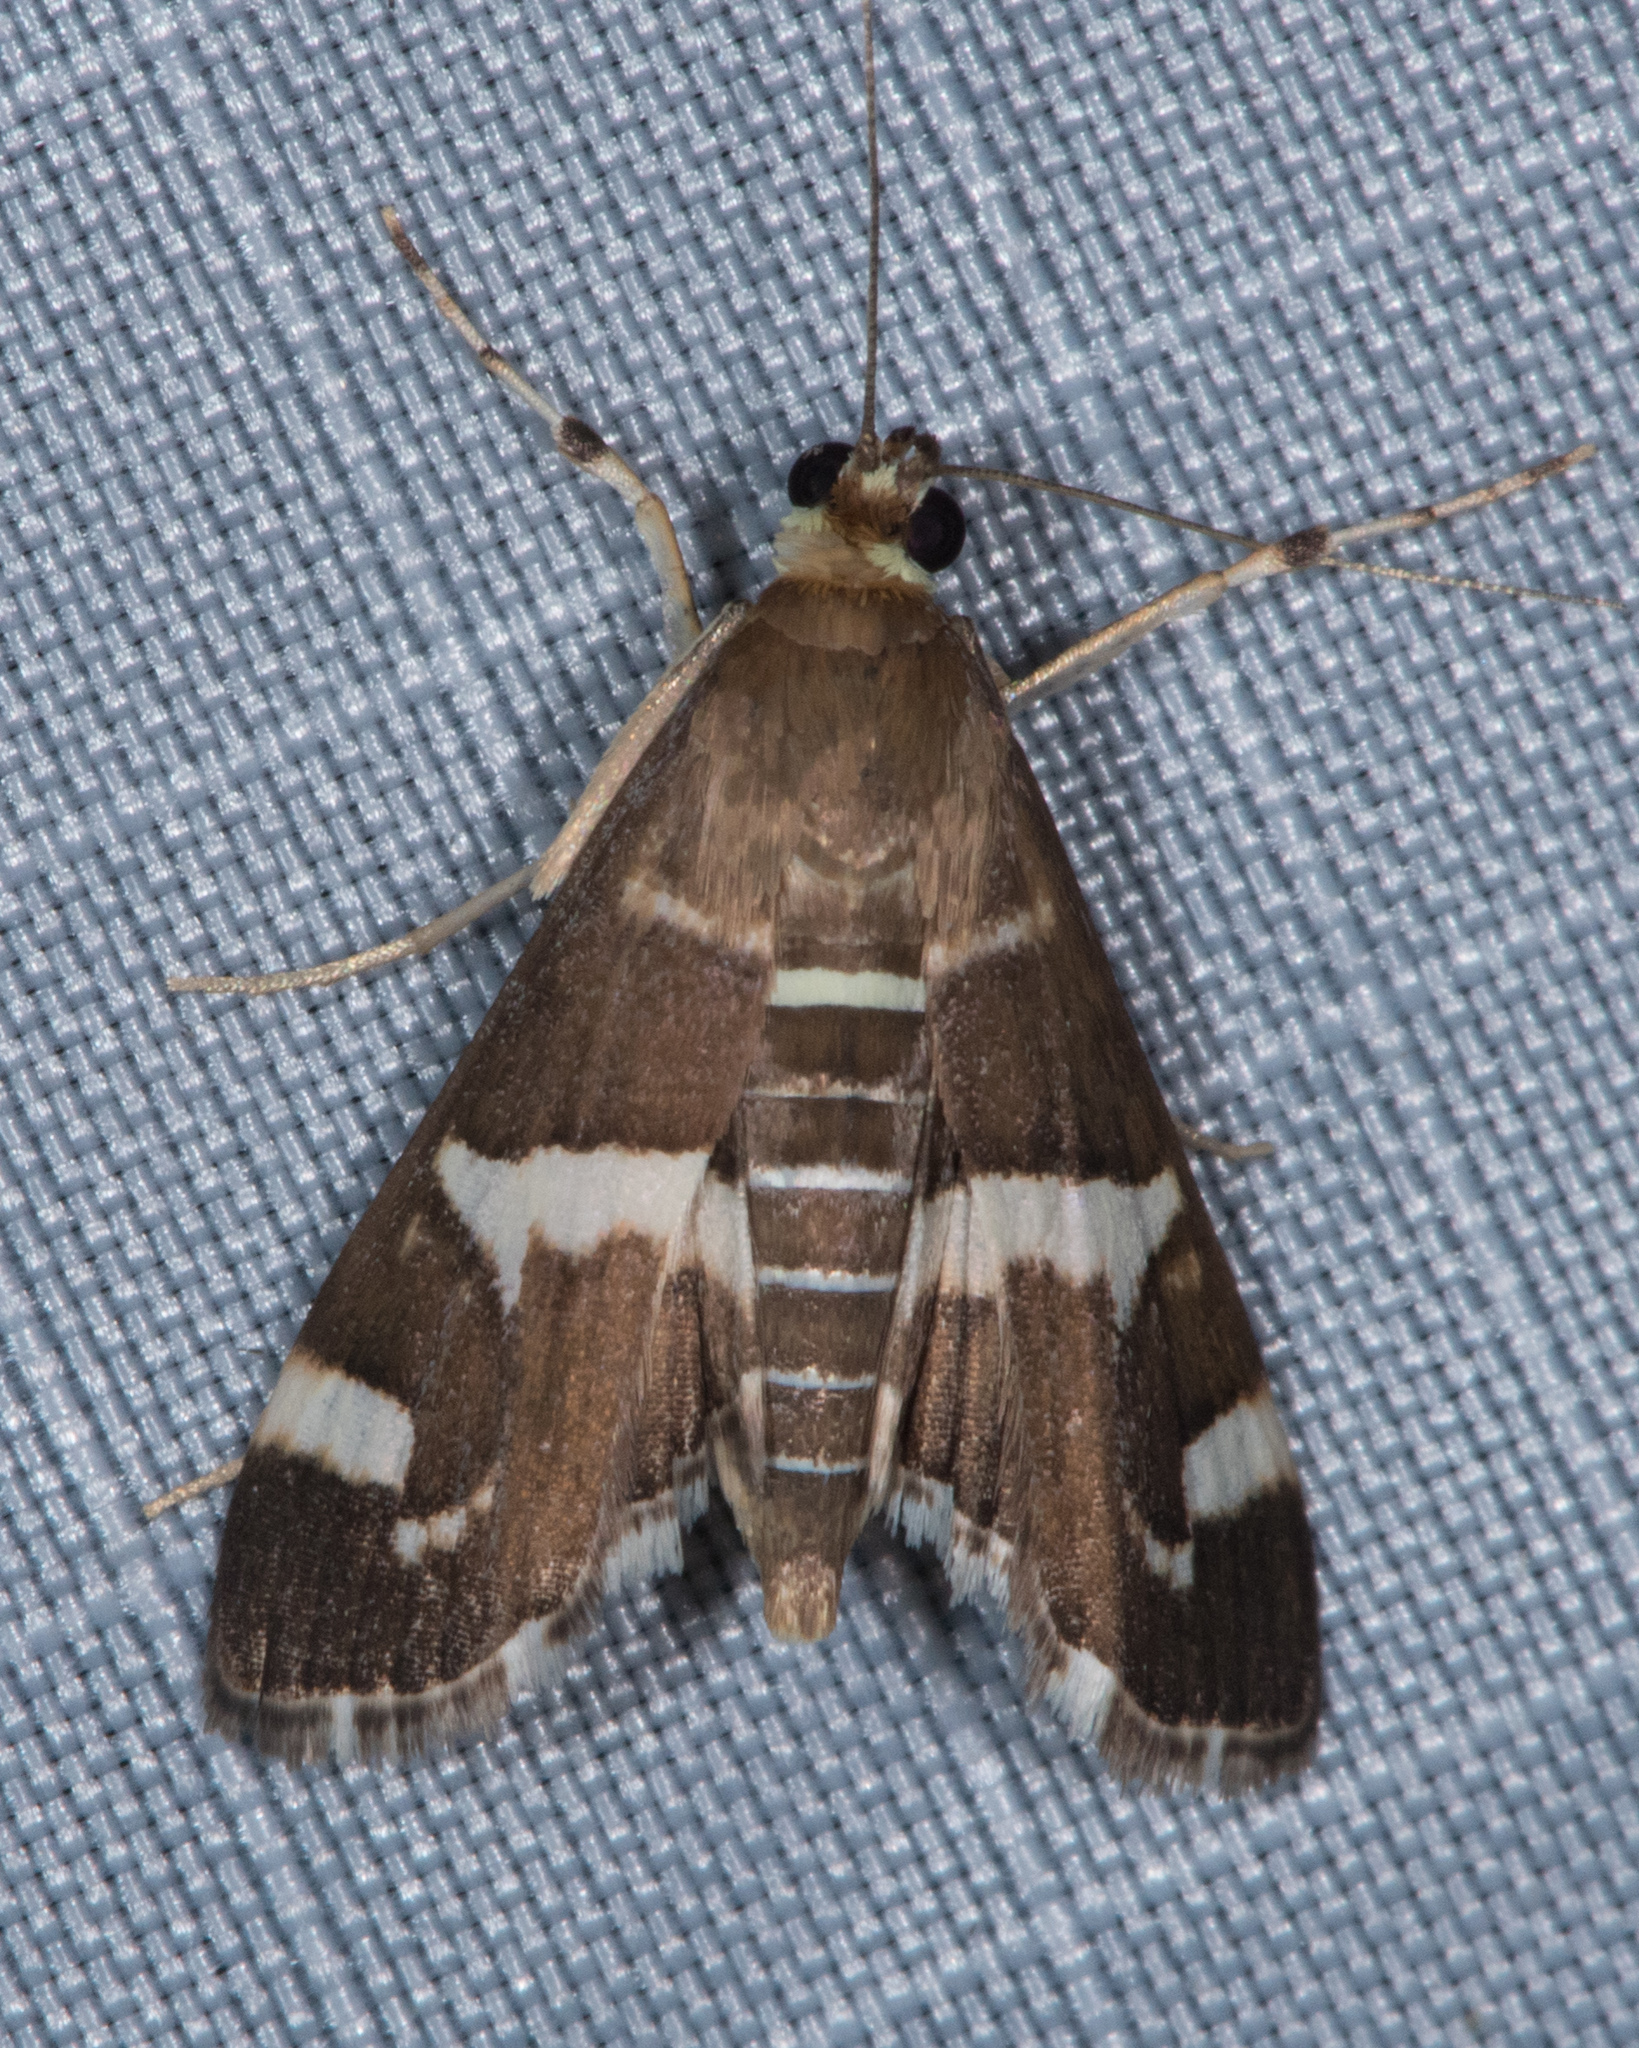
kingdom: Animalia
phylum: Arthropoda
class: Insecta
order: Lepidoptera
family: Crambidae
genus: Spoladea
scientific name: Spoladea recurvalis
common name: Beet webworm moth
